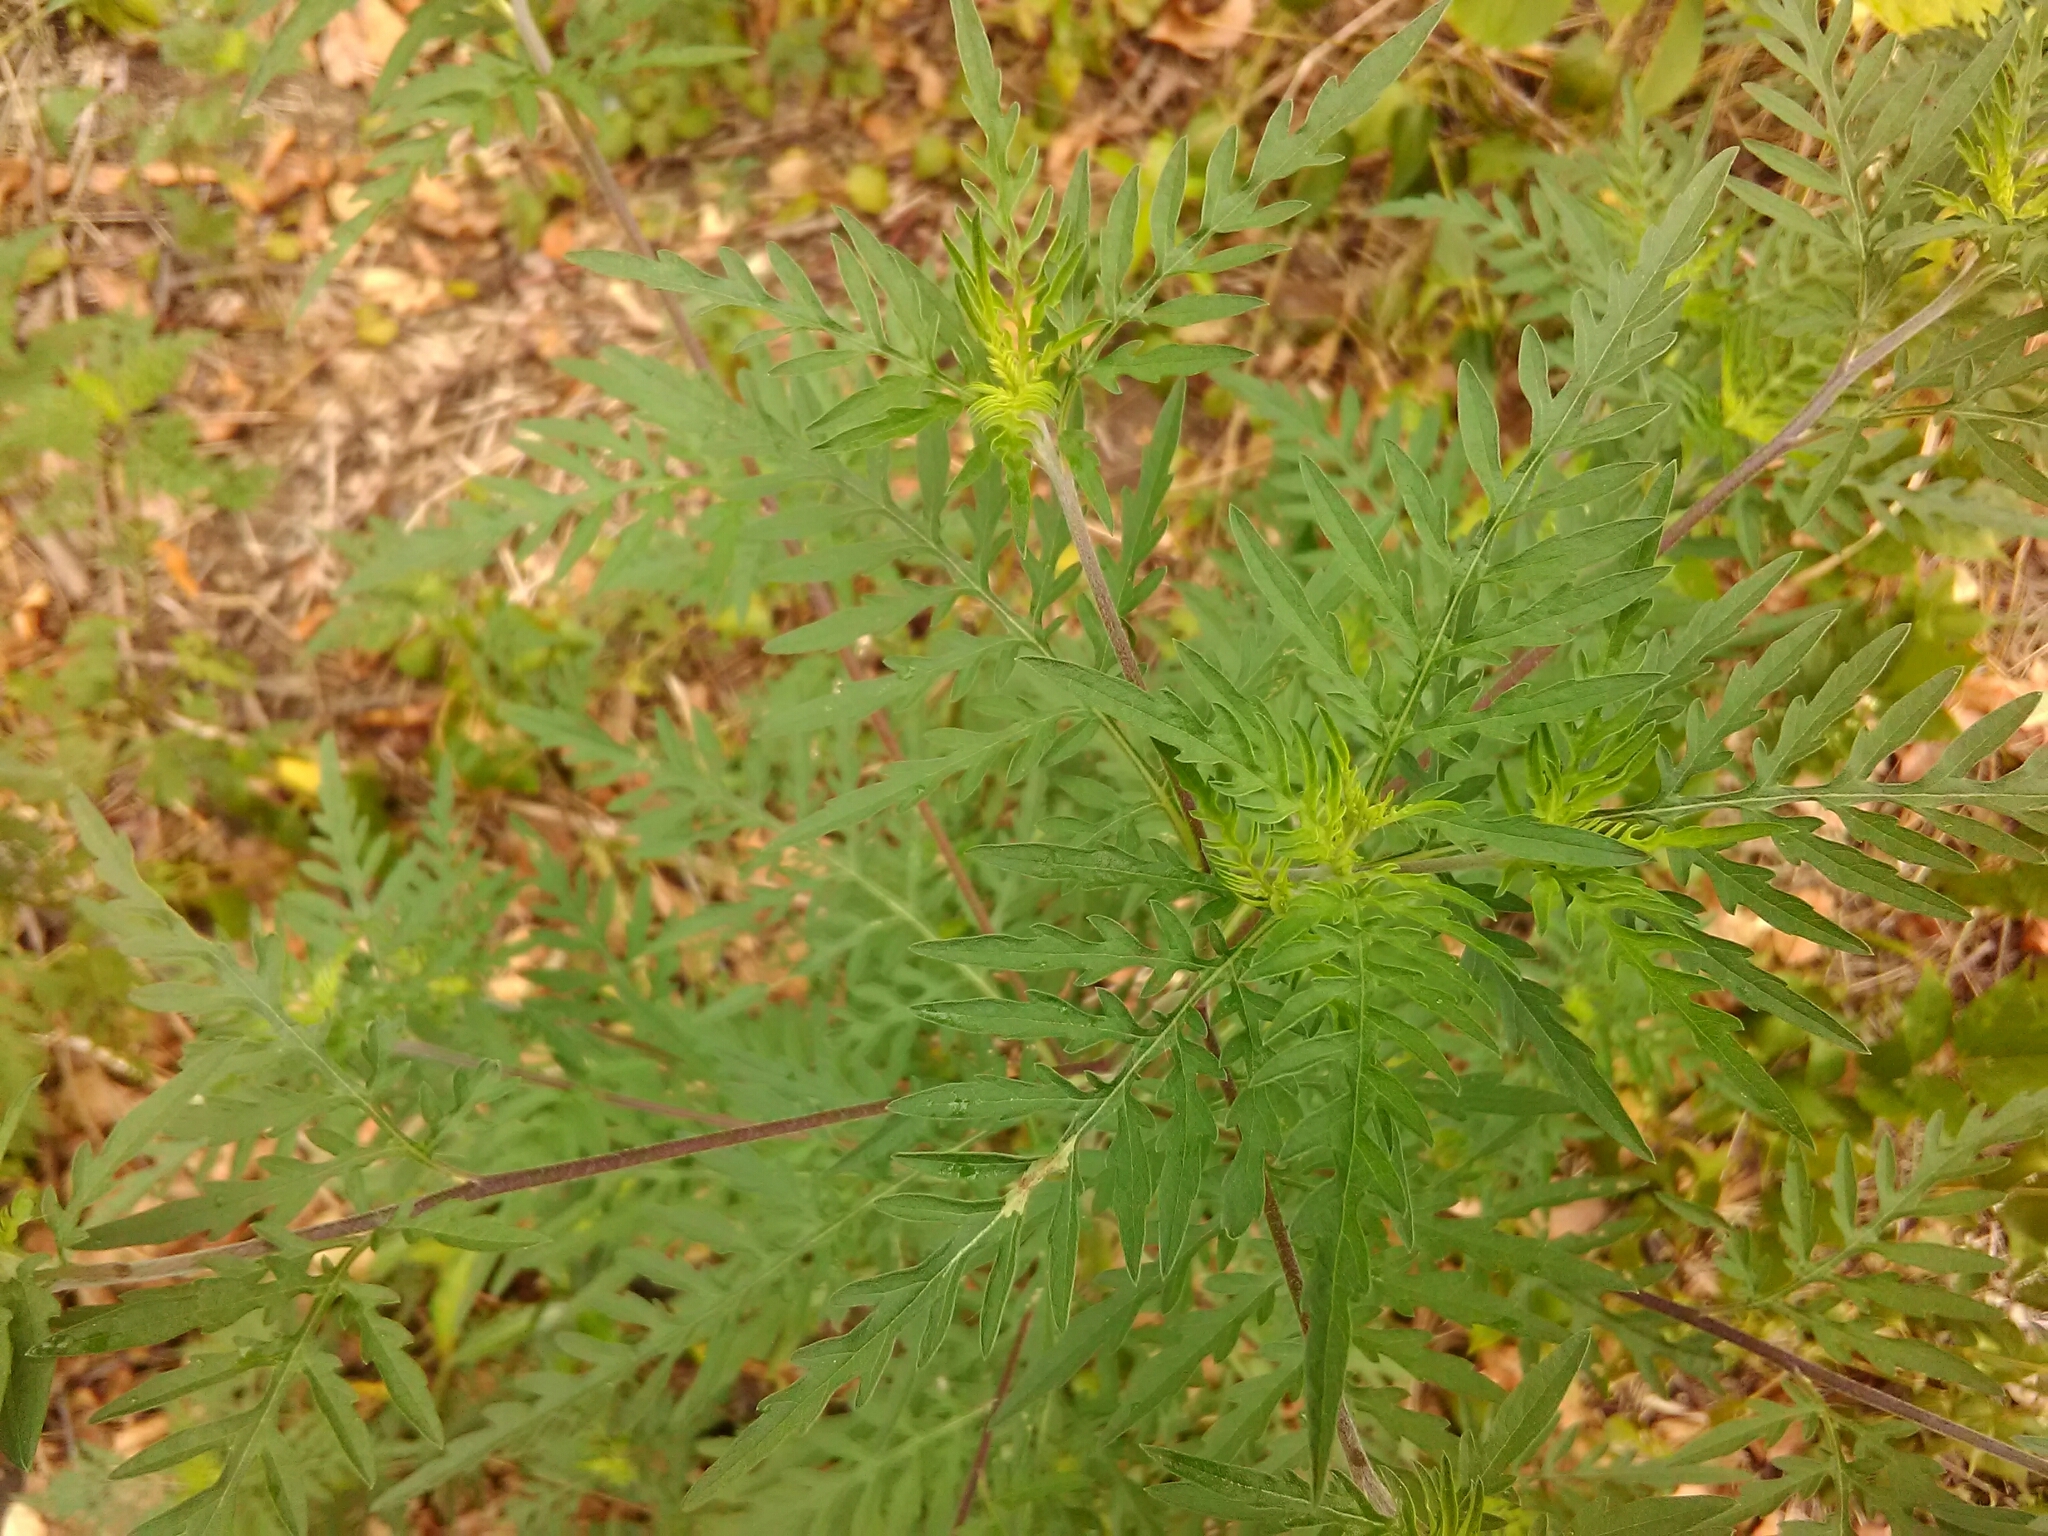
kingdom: Plantae
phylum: Tracheophyta
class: Magnoliopsida
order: Asterales
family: Asteraceae
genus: Ambrosia
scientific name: Ambrosia artemisiifolia
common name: Annual ragweed
